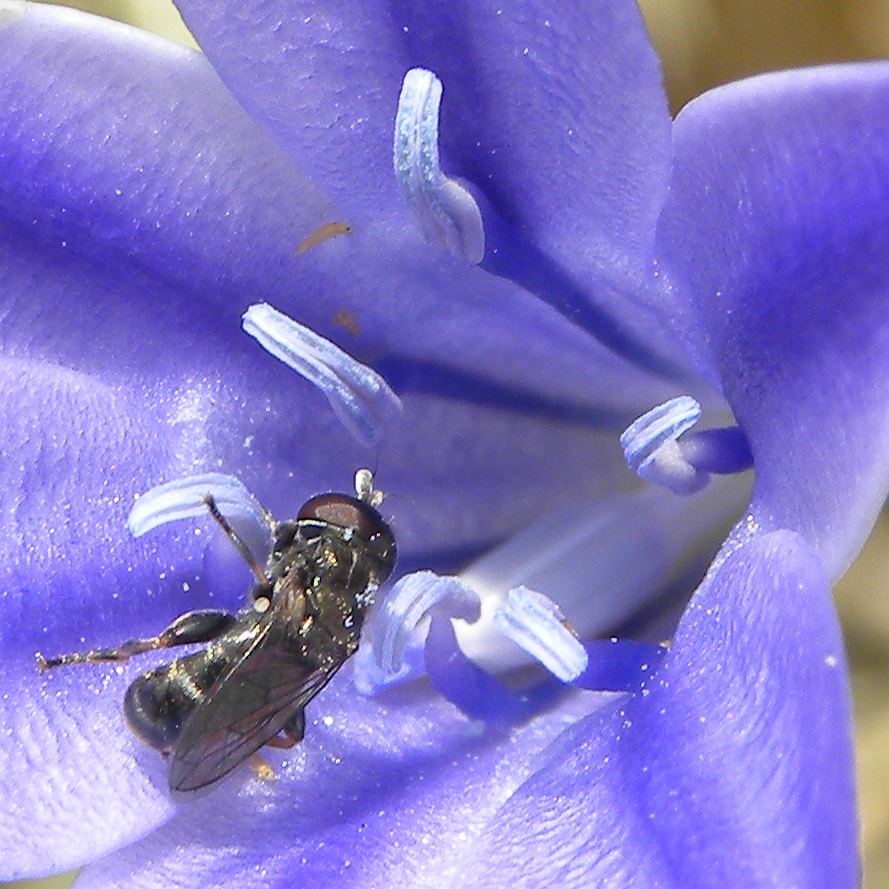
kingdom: Animalia
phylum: Arthropoda
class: Insecta
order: Diptera
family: Syrphidae
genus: Eumerus
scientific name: Eumerus
